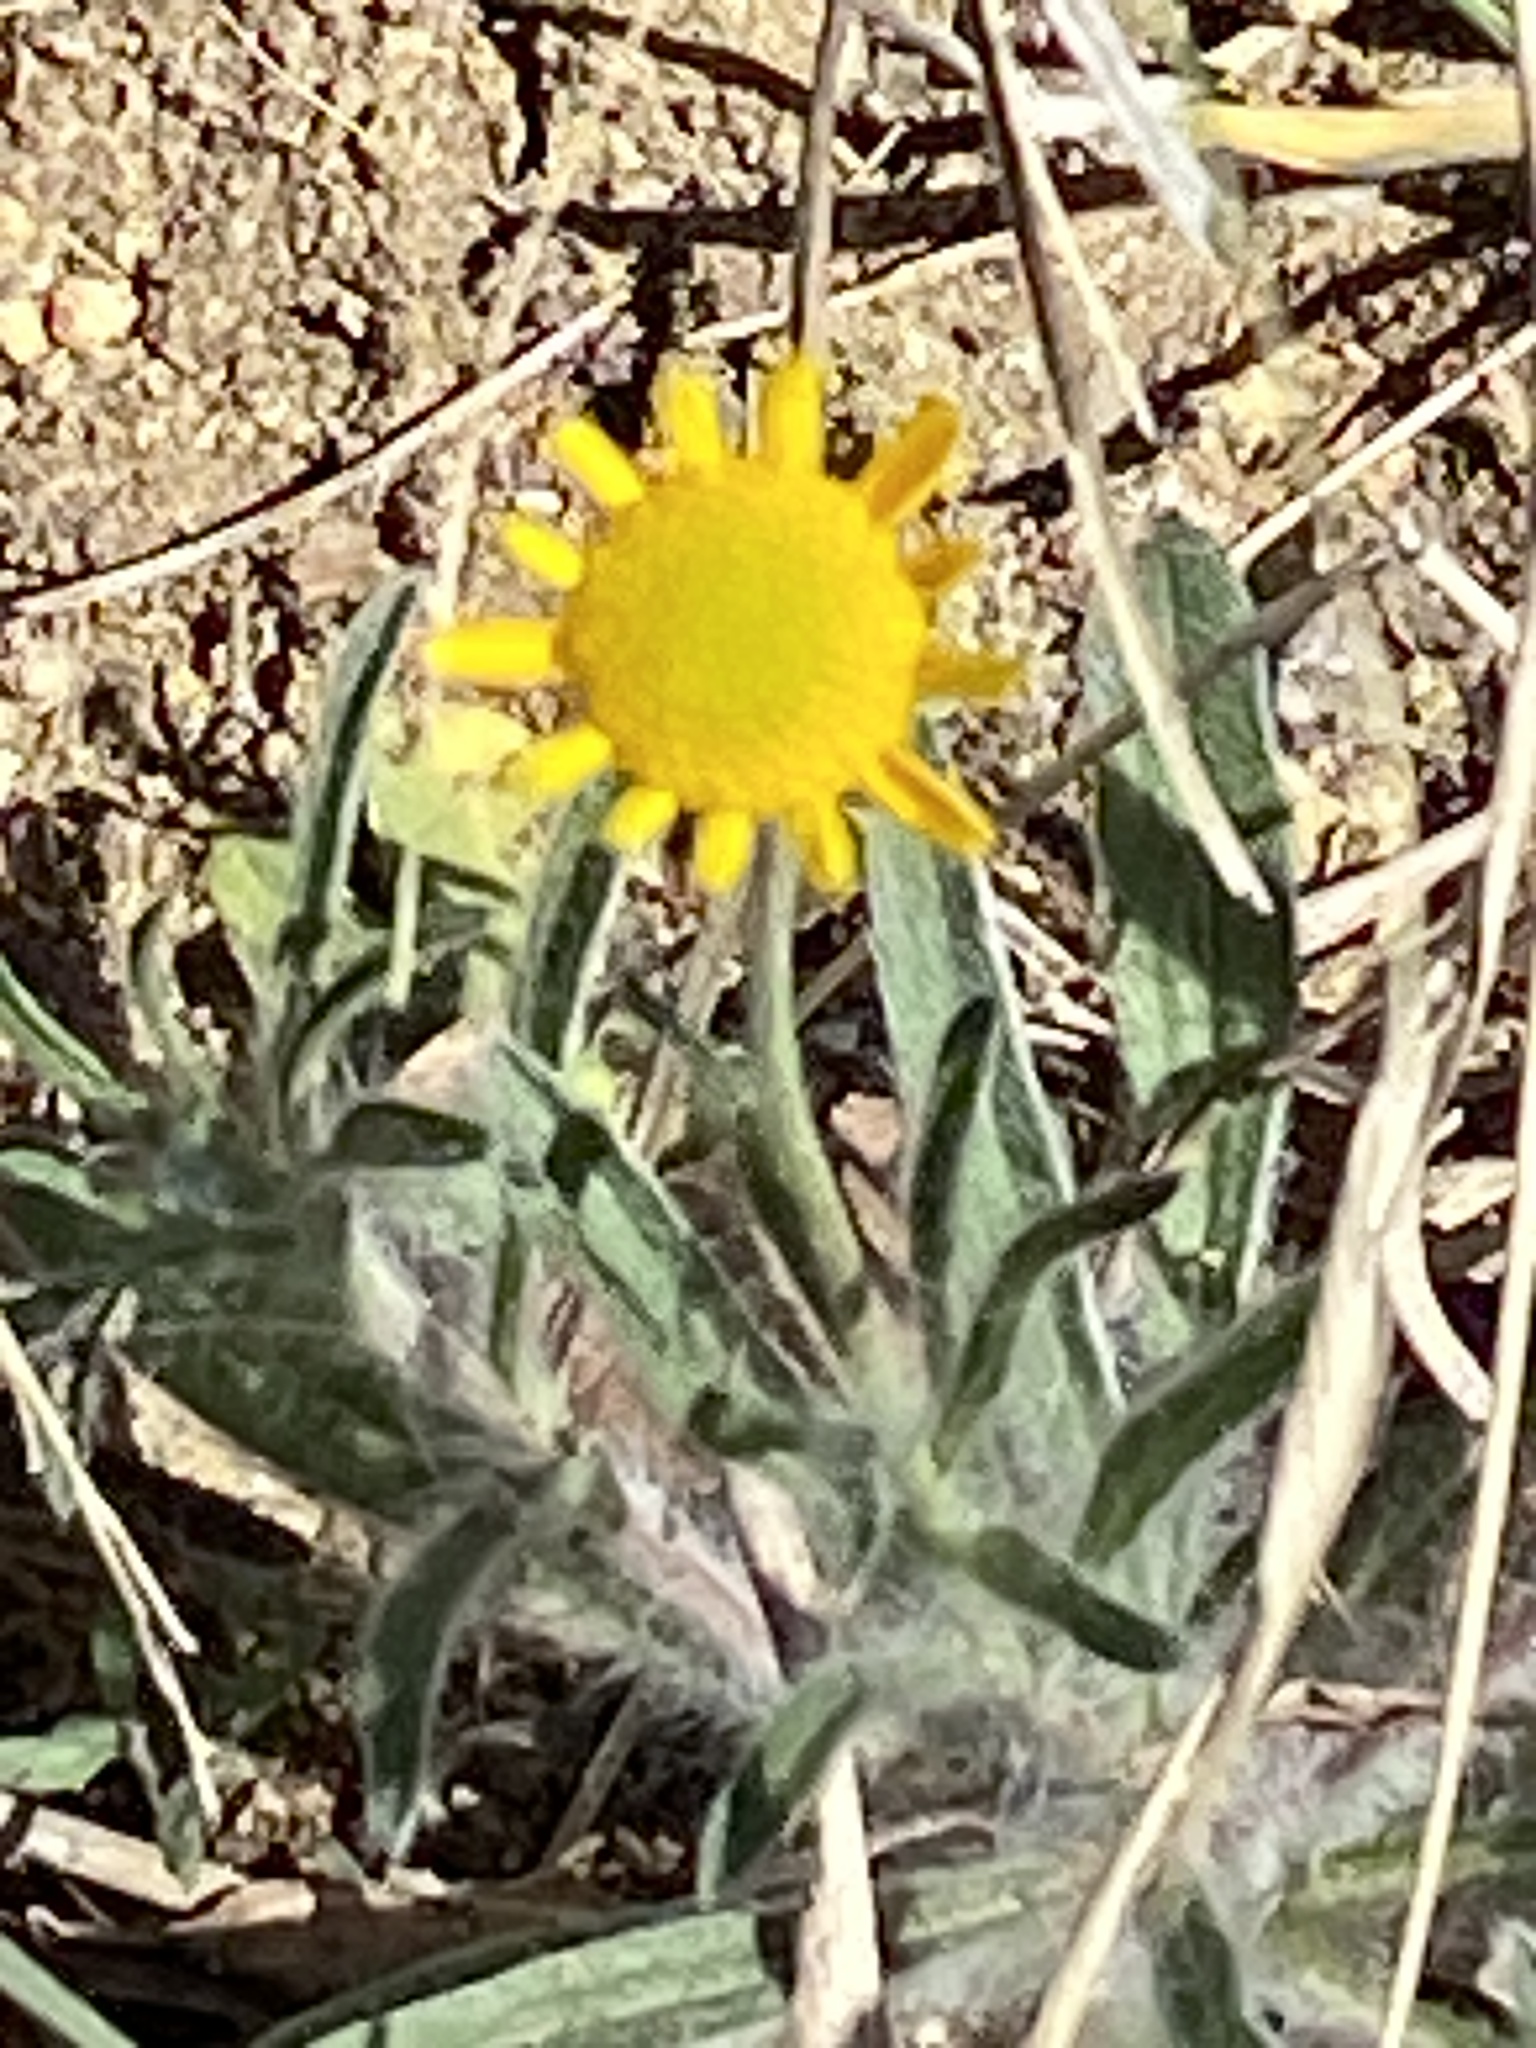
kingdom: Plantae
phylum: Tracheophyta
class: Magnoliopsida
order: Asterales
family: Asteraceae
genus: Tetraneuris
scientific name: Tetraneuris linearifolia
